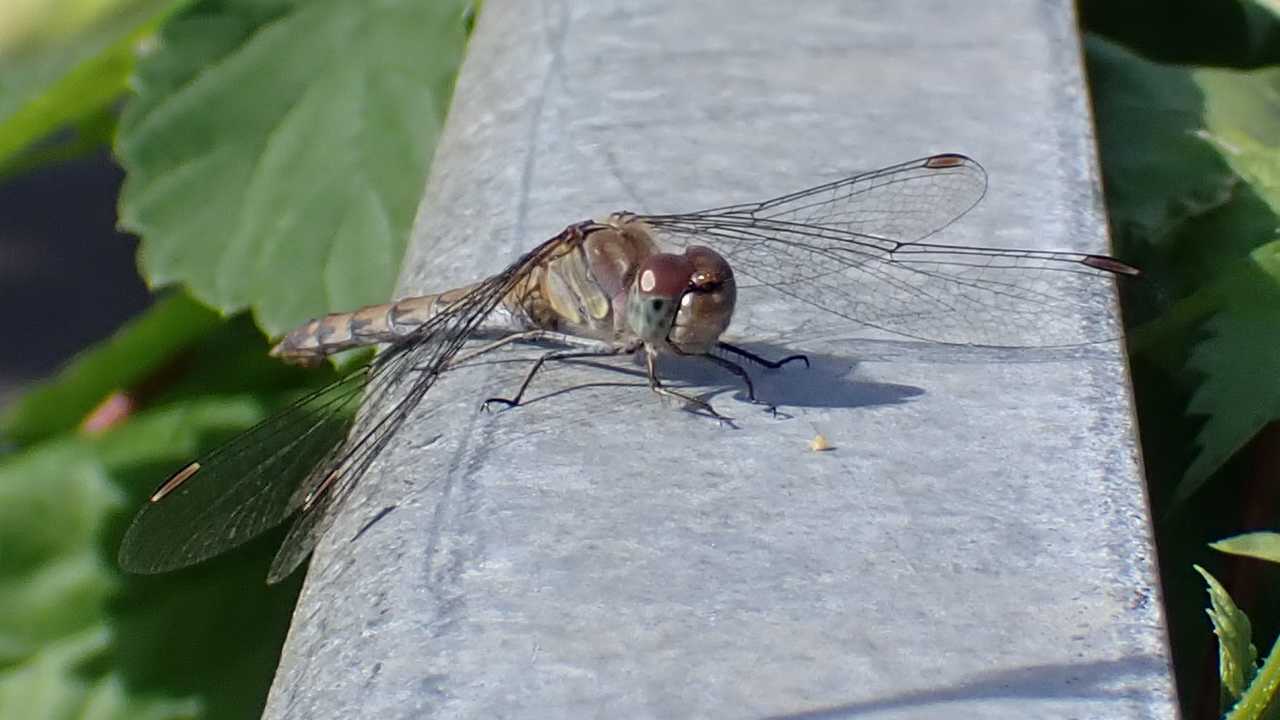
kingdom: Animalia
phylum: Arthropoda
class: Insecta
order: Odonata
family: Libellulidae
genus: Sympetrum
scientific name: Sympetrum striolatum
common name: Common darter
